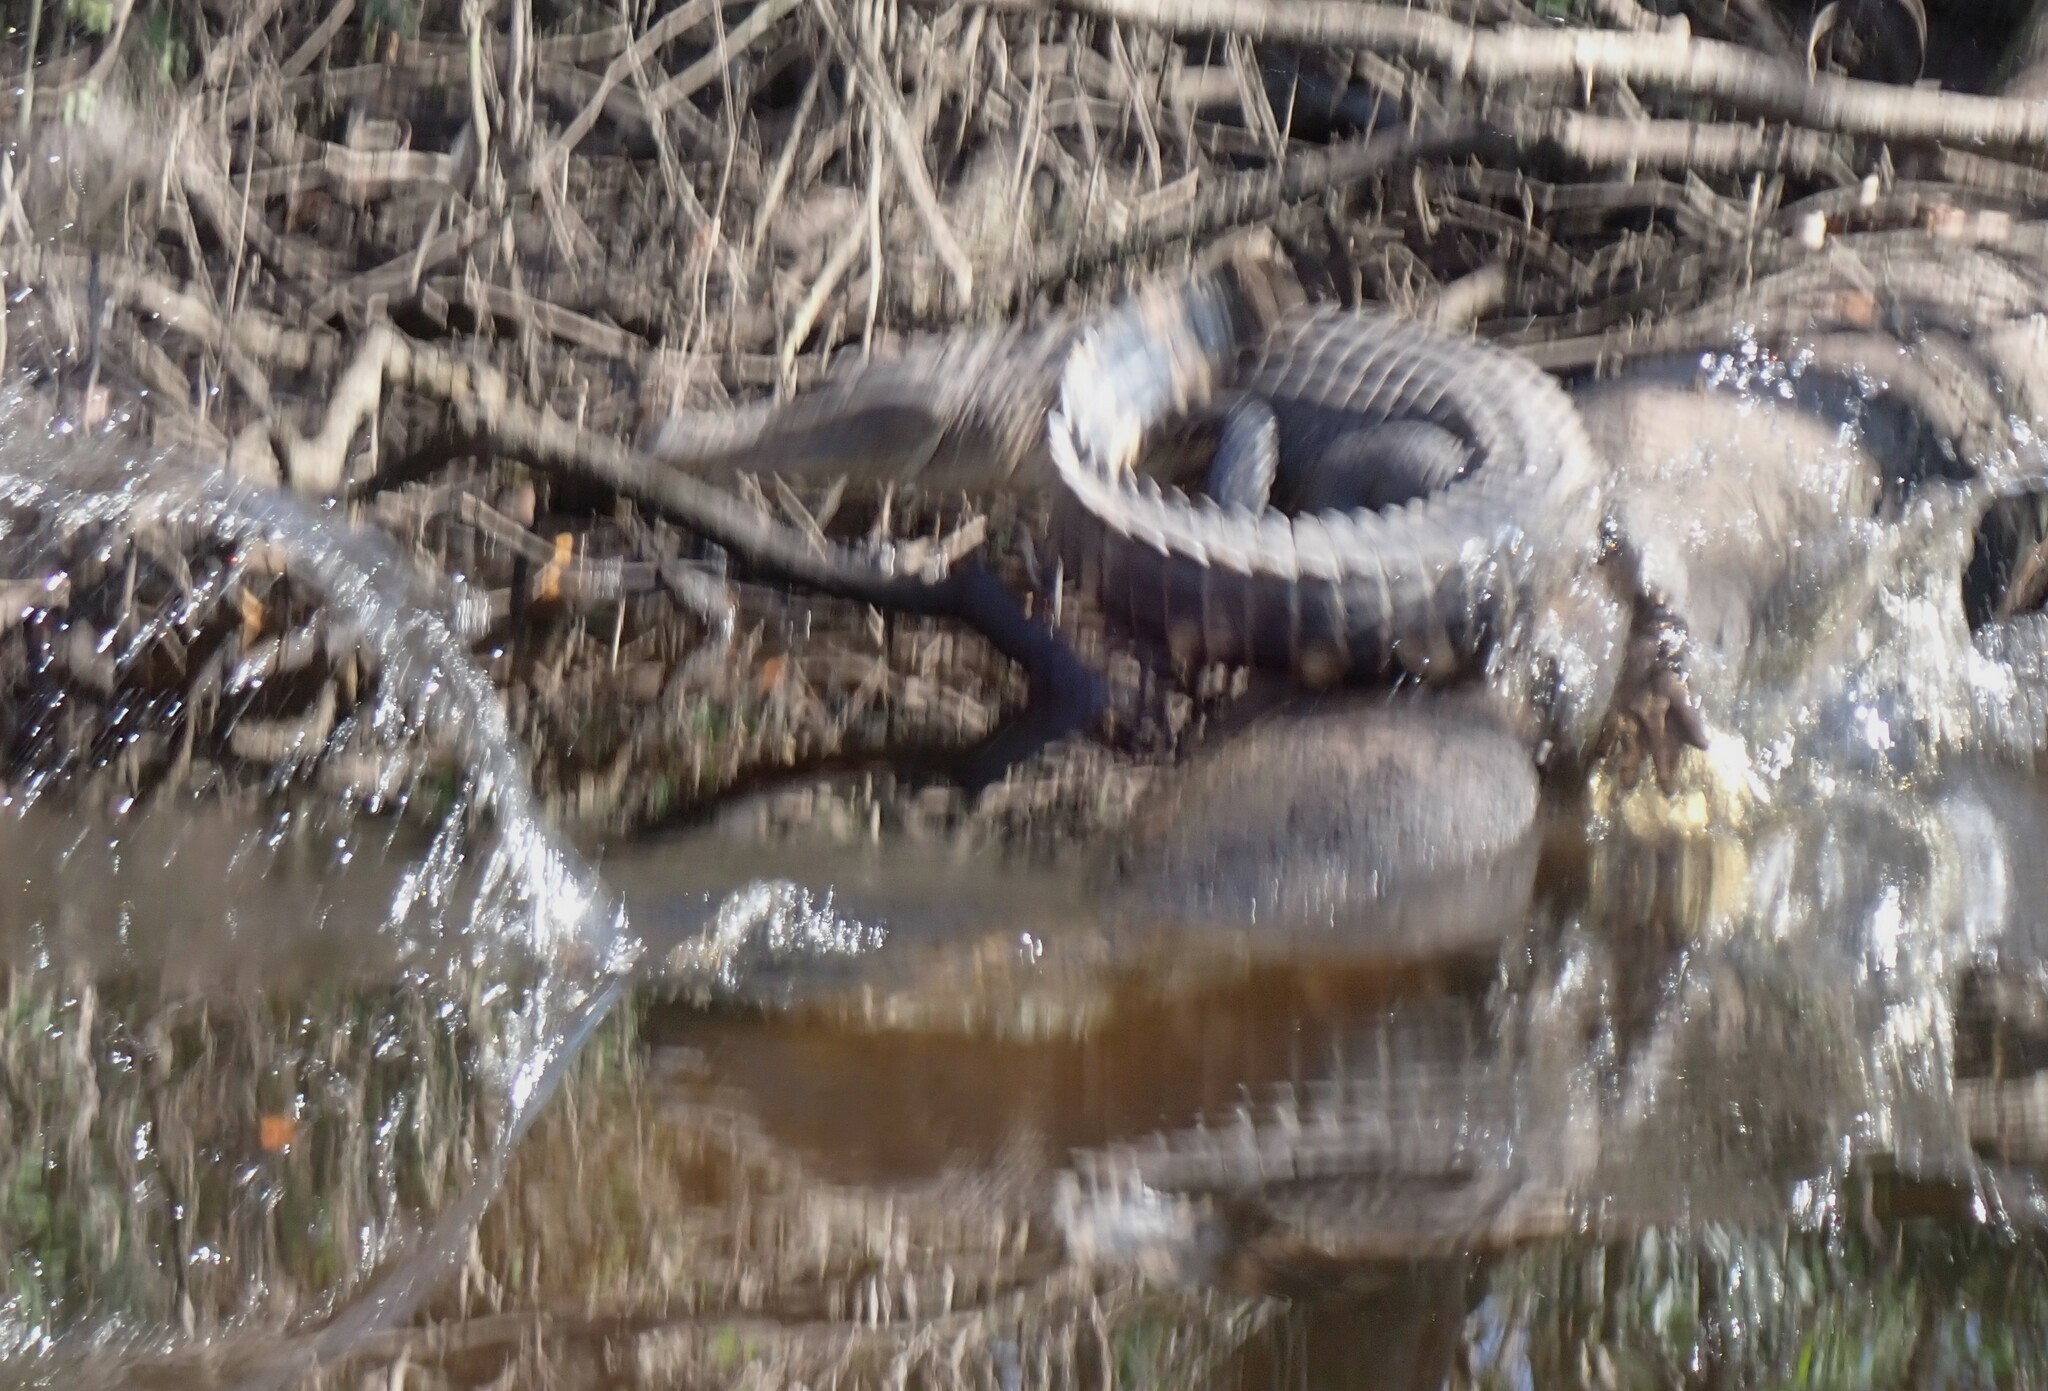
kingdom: Animalia
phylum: Chordata
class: Crocodylia
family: Alligatoridae
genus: Alligator
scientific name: Alligator mississippiensis
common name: American alligator
